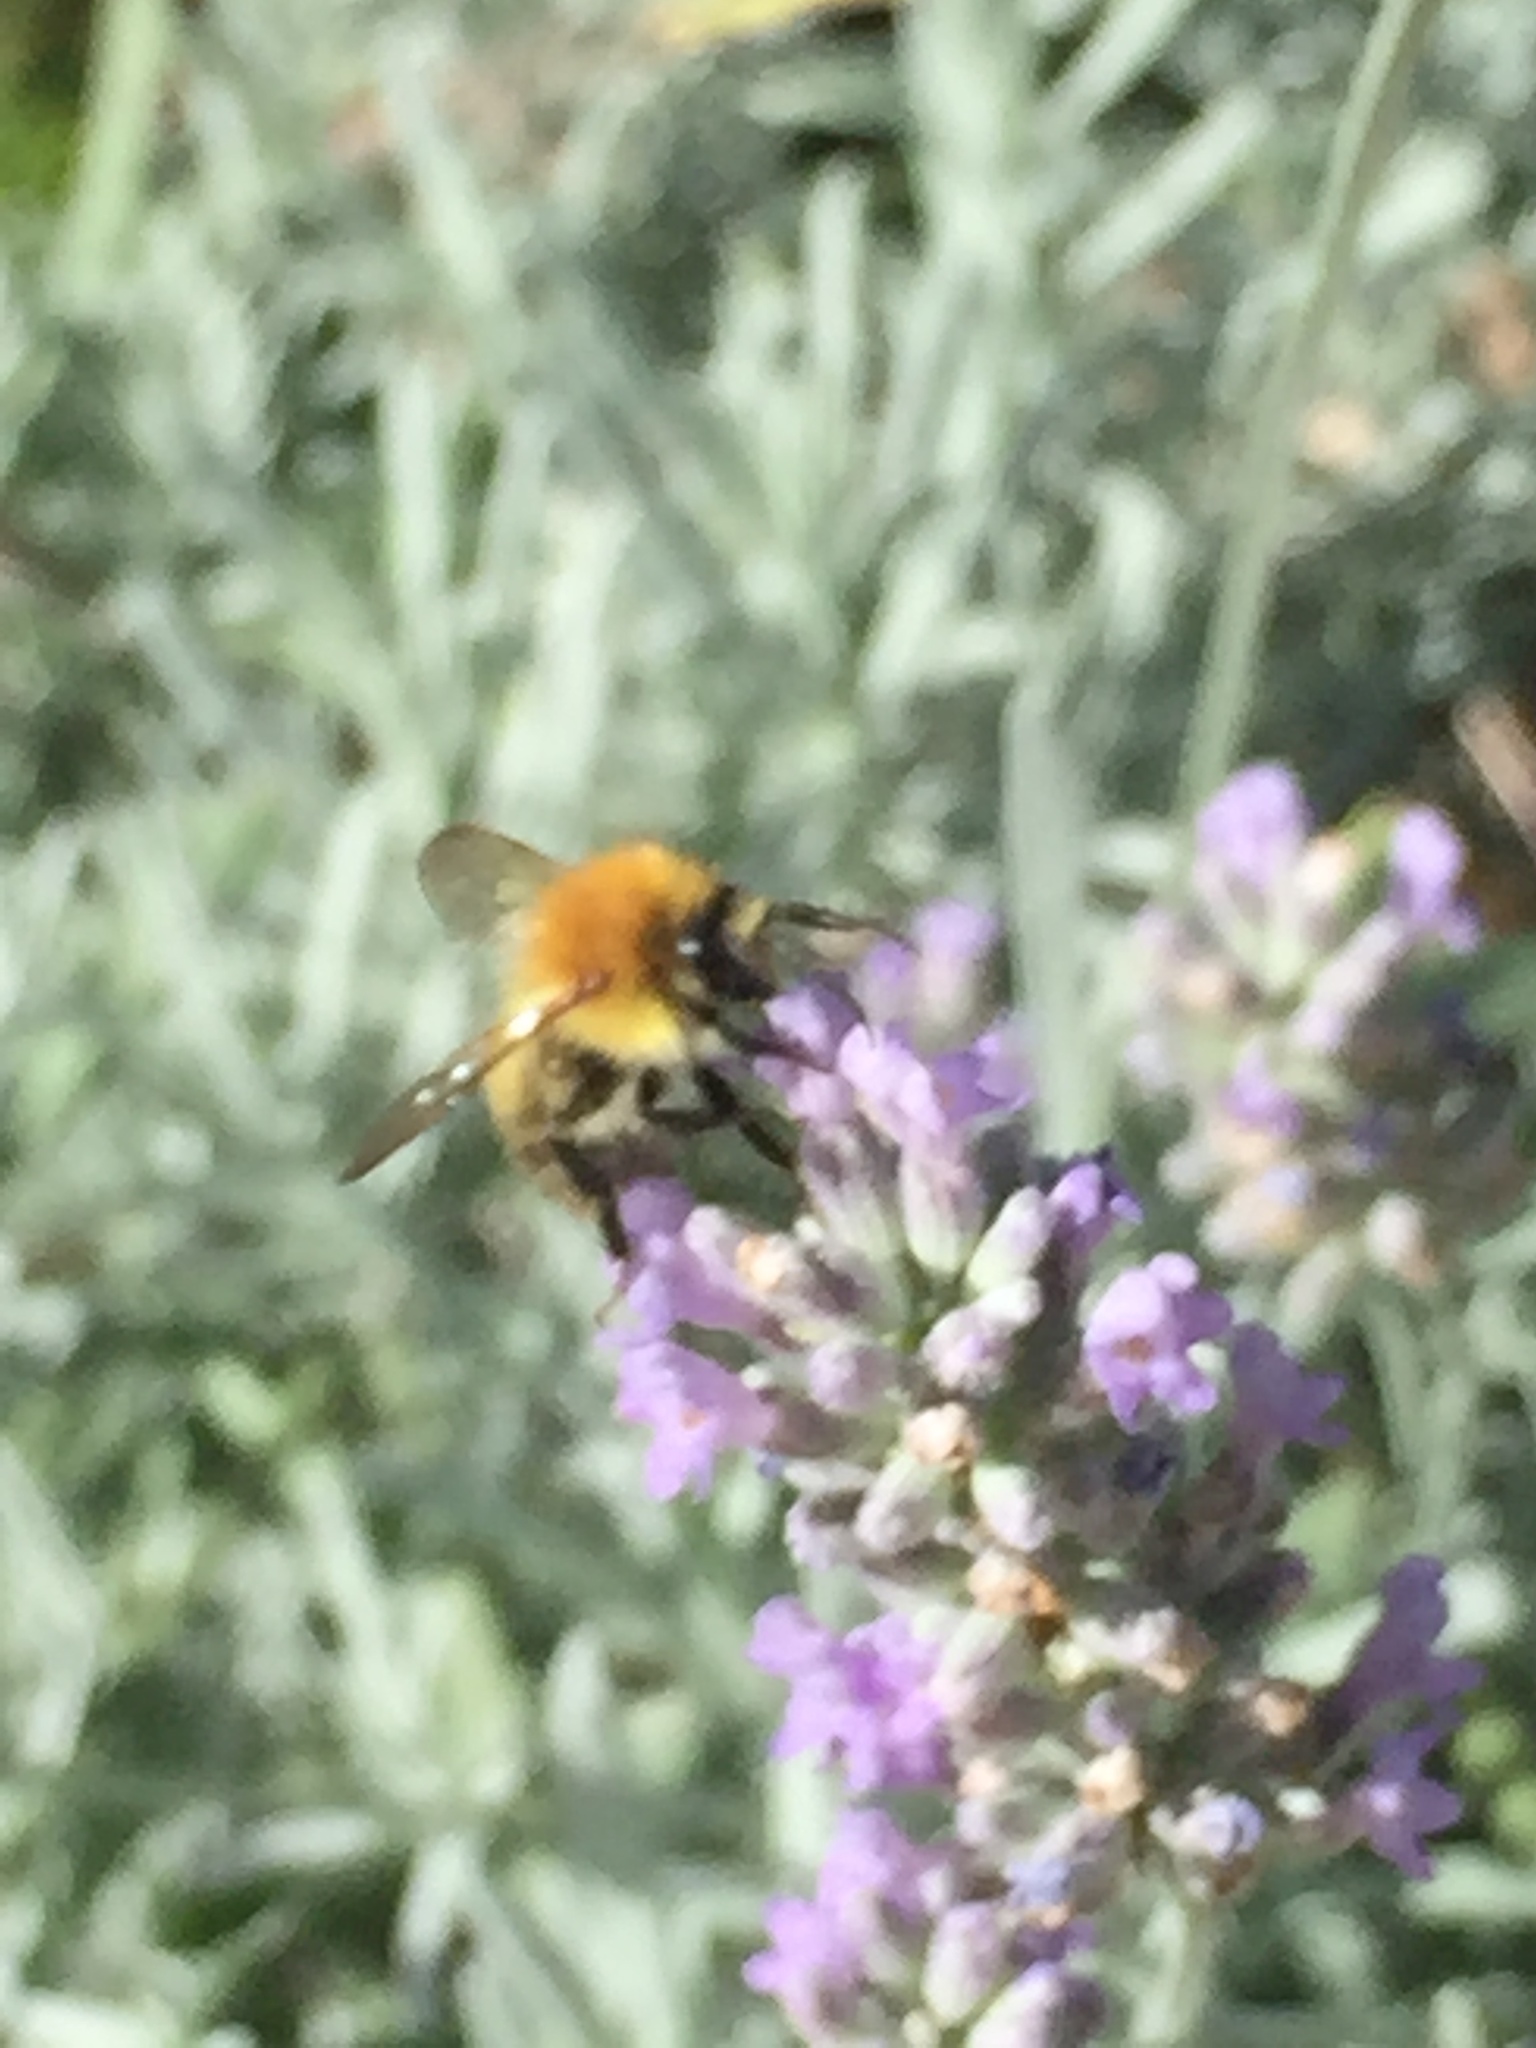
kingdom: Animalia
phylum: Arthropoda
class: Insecta
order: Hymenoptera
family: Apidae
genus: Bombus
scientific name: Bombus pascuorum
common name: Common carder bee
